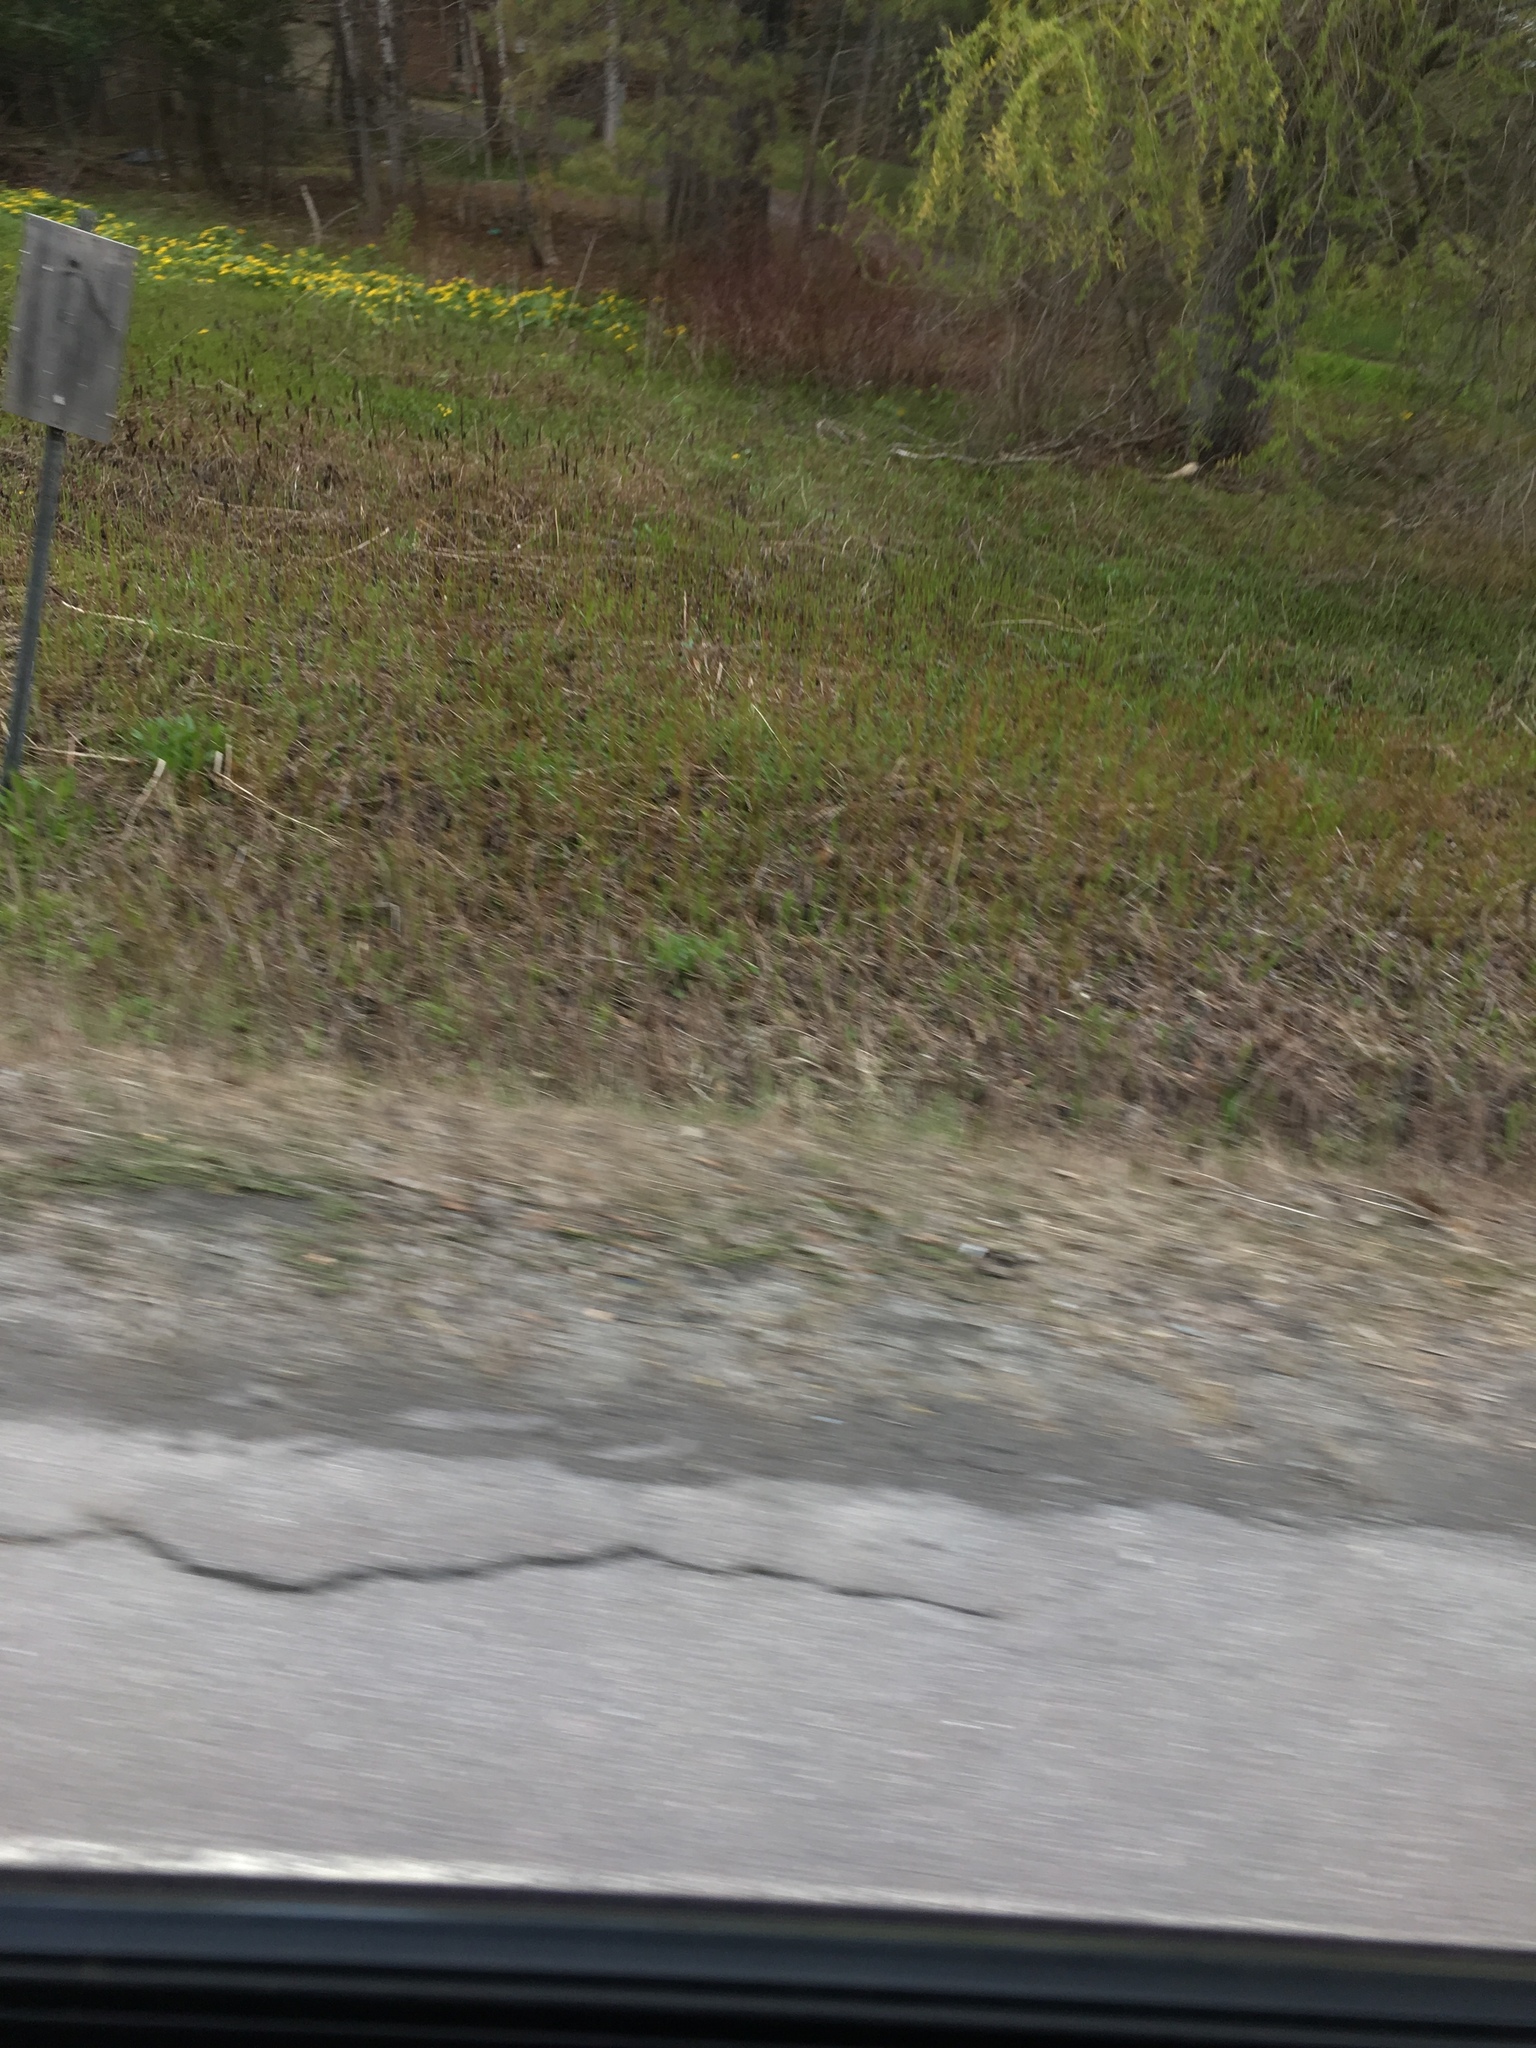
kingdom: Plantae
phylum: Tracheophyta
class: Polypodiopsida
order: Polypodiales
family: Onocleaceae
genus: Onoclea
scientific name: Onoclea sensibilis
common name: Sensitive fern
